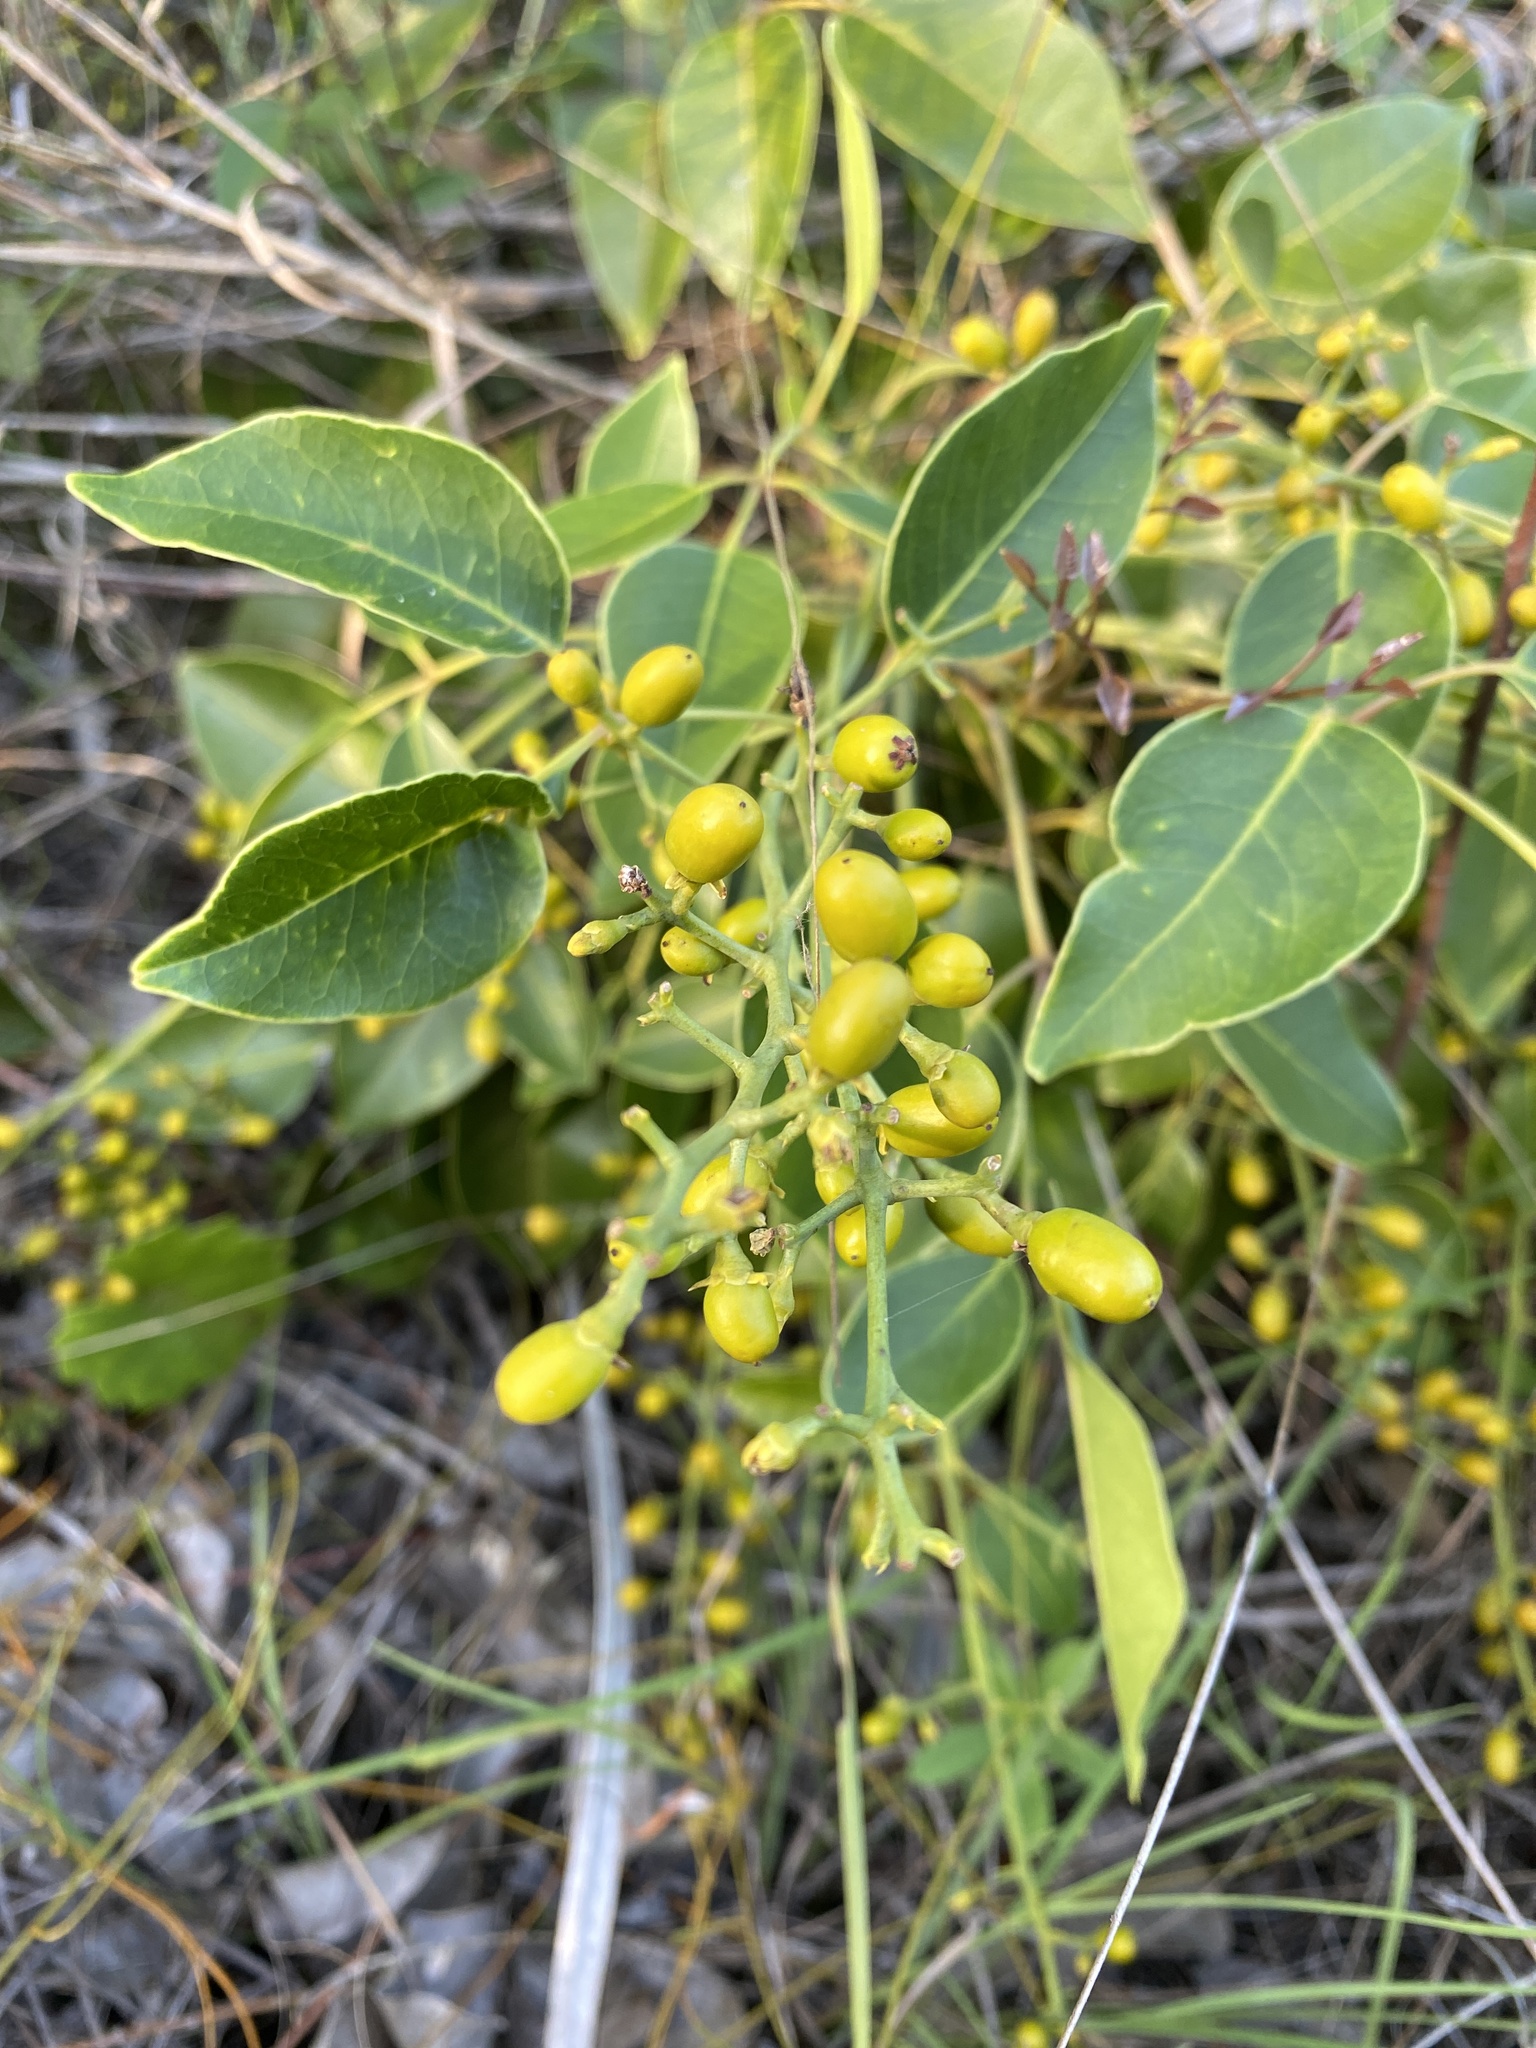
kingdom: Plantae
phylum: Tracheophyta
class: Magnoliopsida
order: Sapindales
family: Anacardiaceae
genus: Metopium
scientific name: Metopium toxiferum
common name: Florida poisontree
